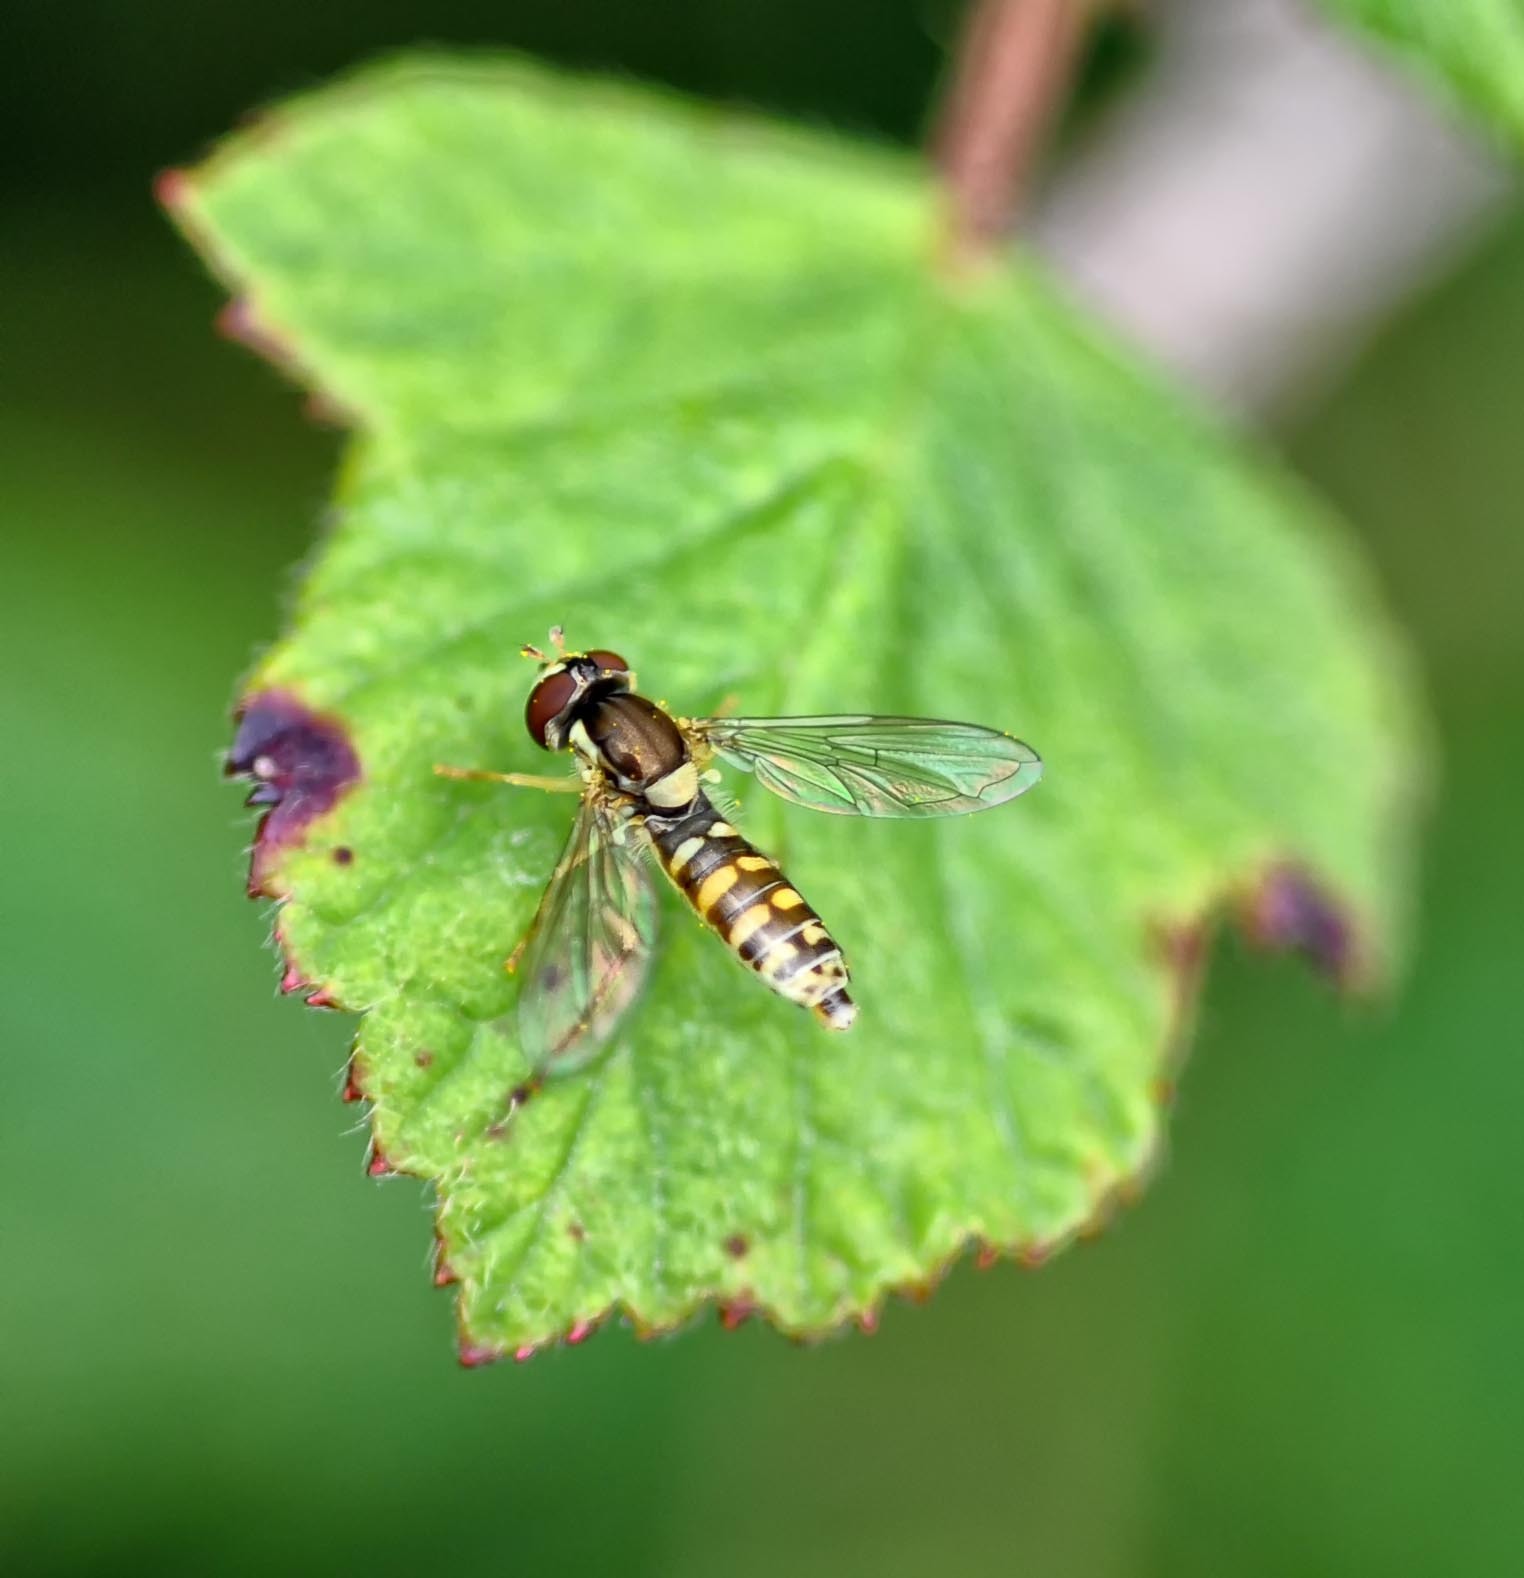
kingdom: Animalia
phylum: Arthropoda
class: Insecta
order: Diptera
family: Syrphidae
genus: Sphaerophoria
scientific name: Sphaerophoria
